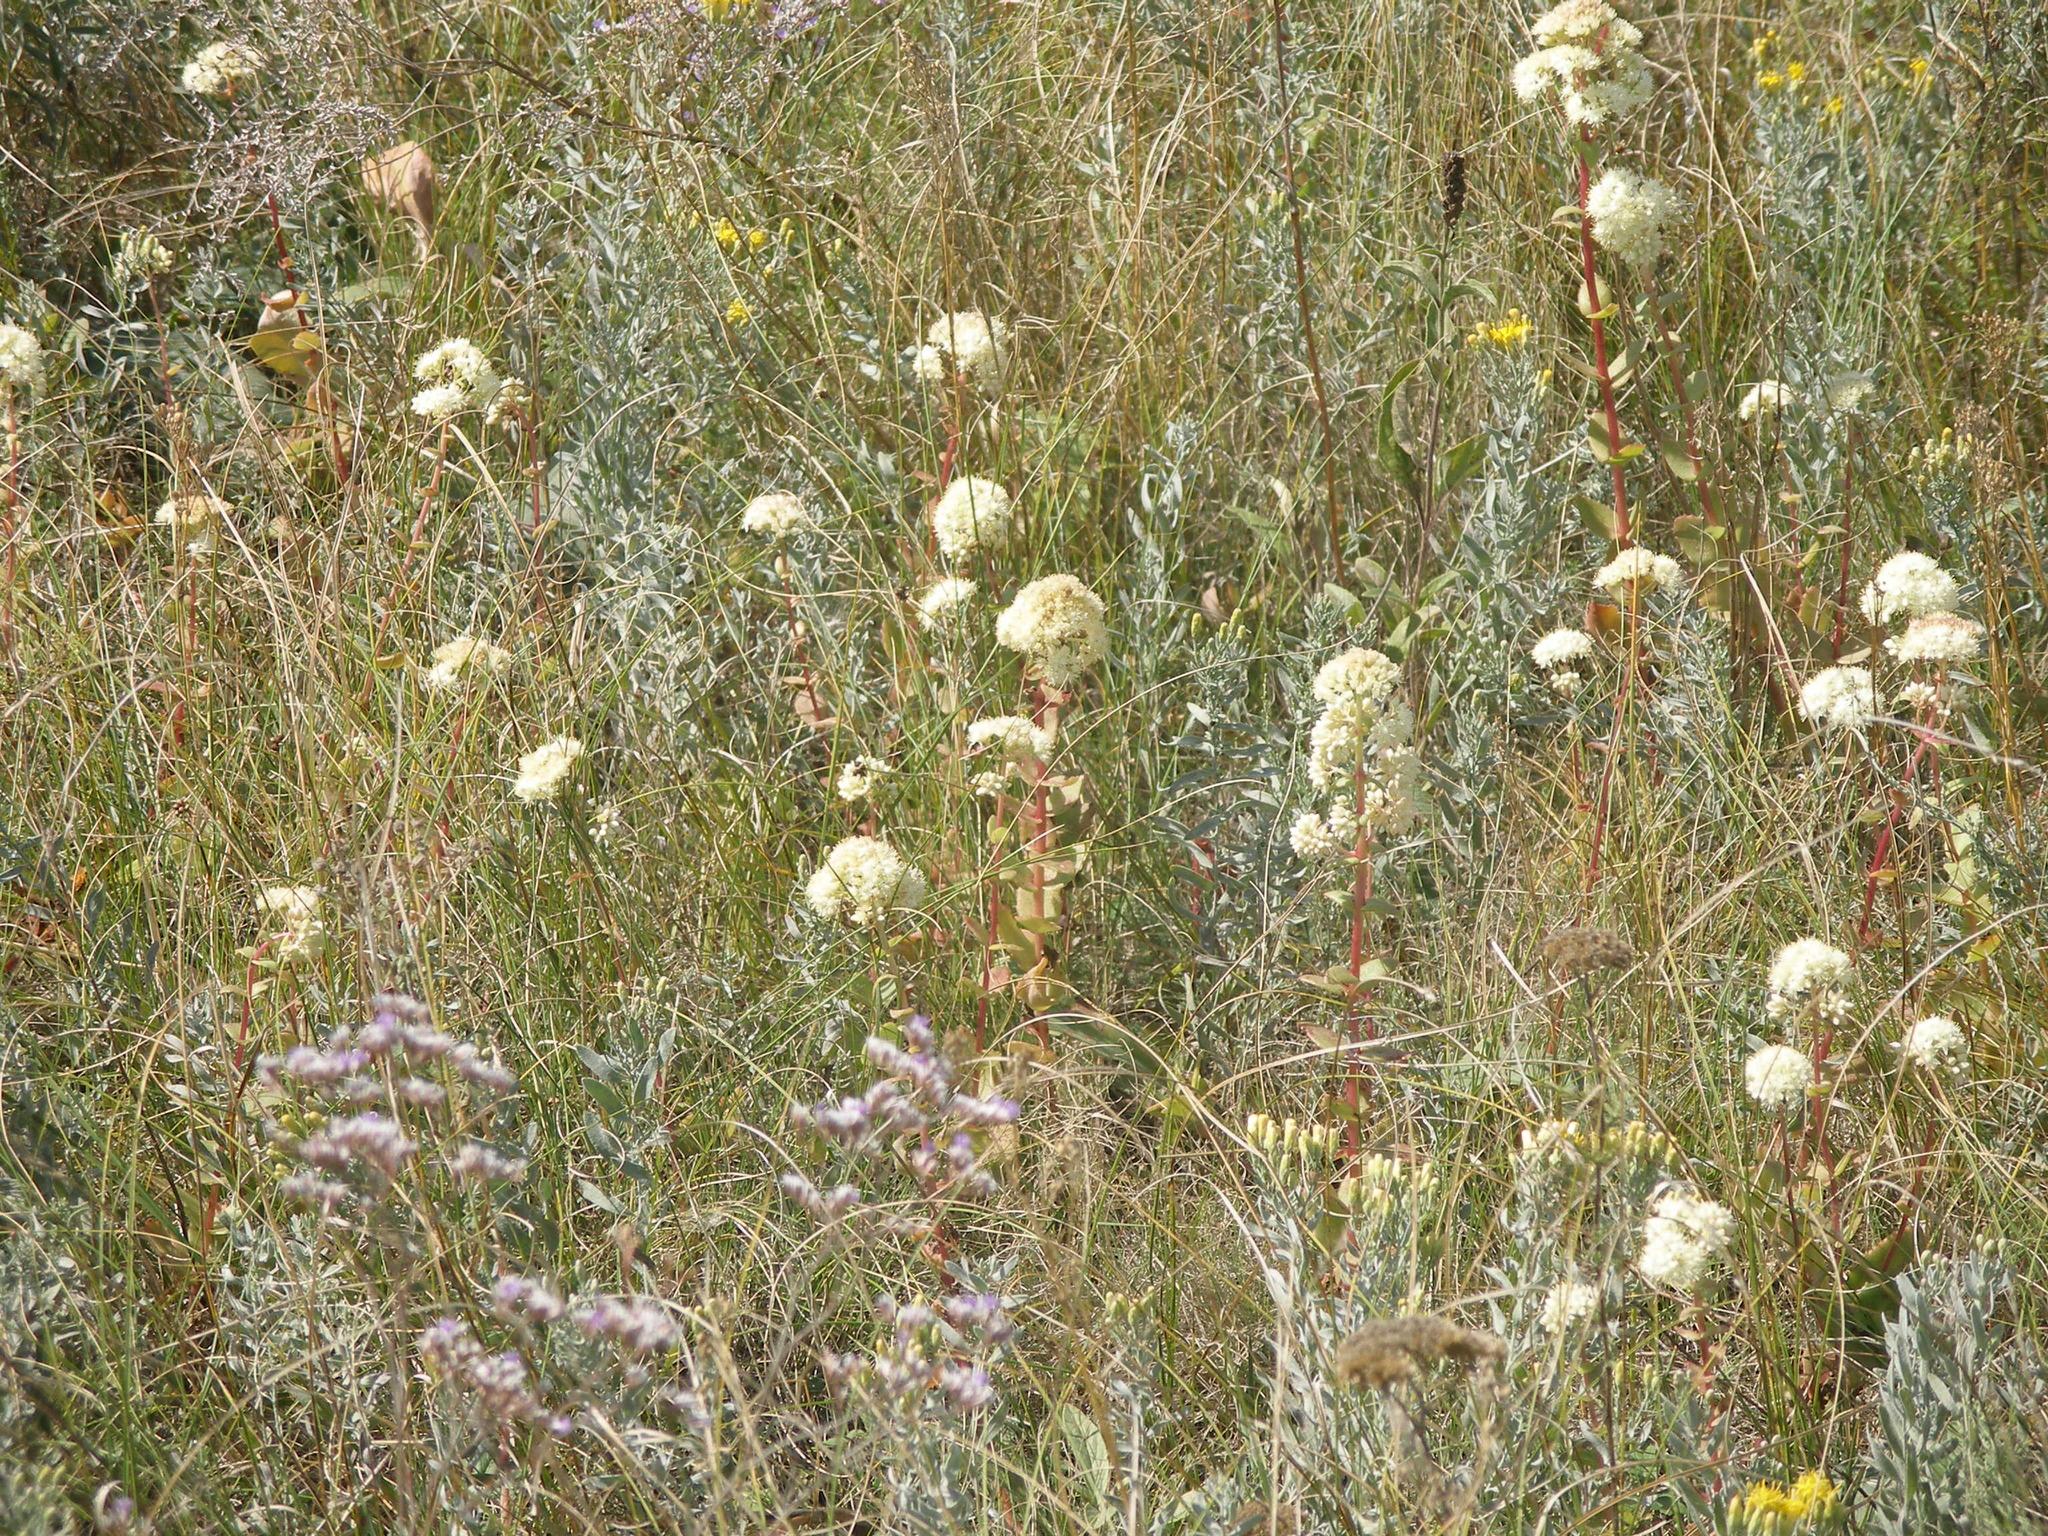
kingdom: Plantae
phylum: Tracheophyta
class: Magnoliopsida
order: Saxifragales
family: Crassulaceae
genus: Hylotelephium
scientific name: Hylotelephium maximum
